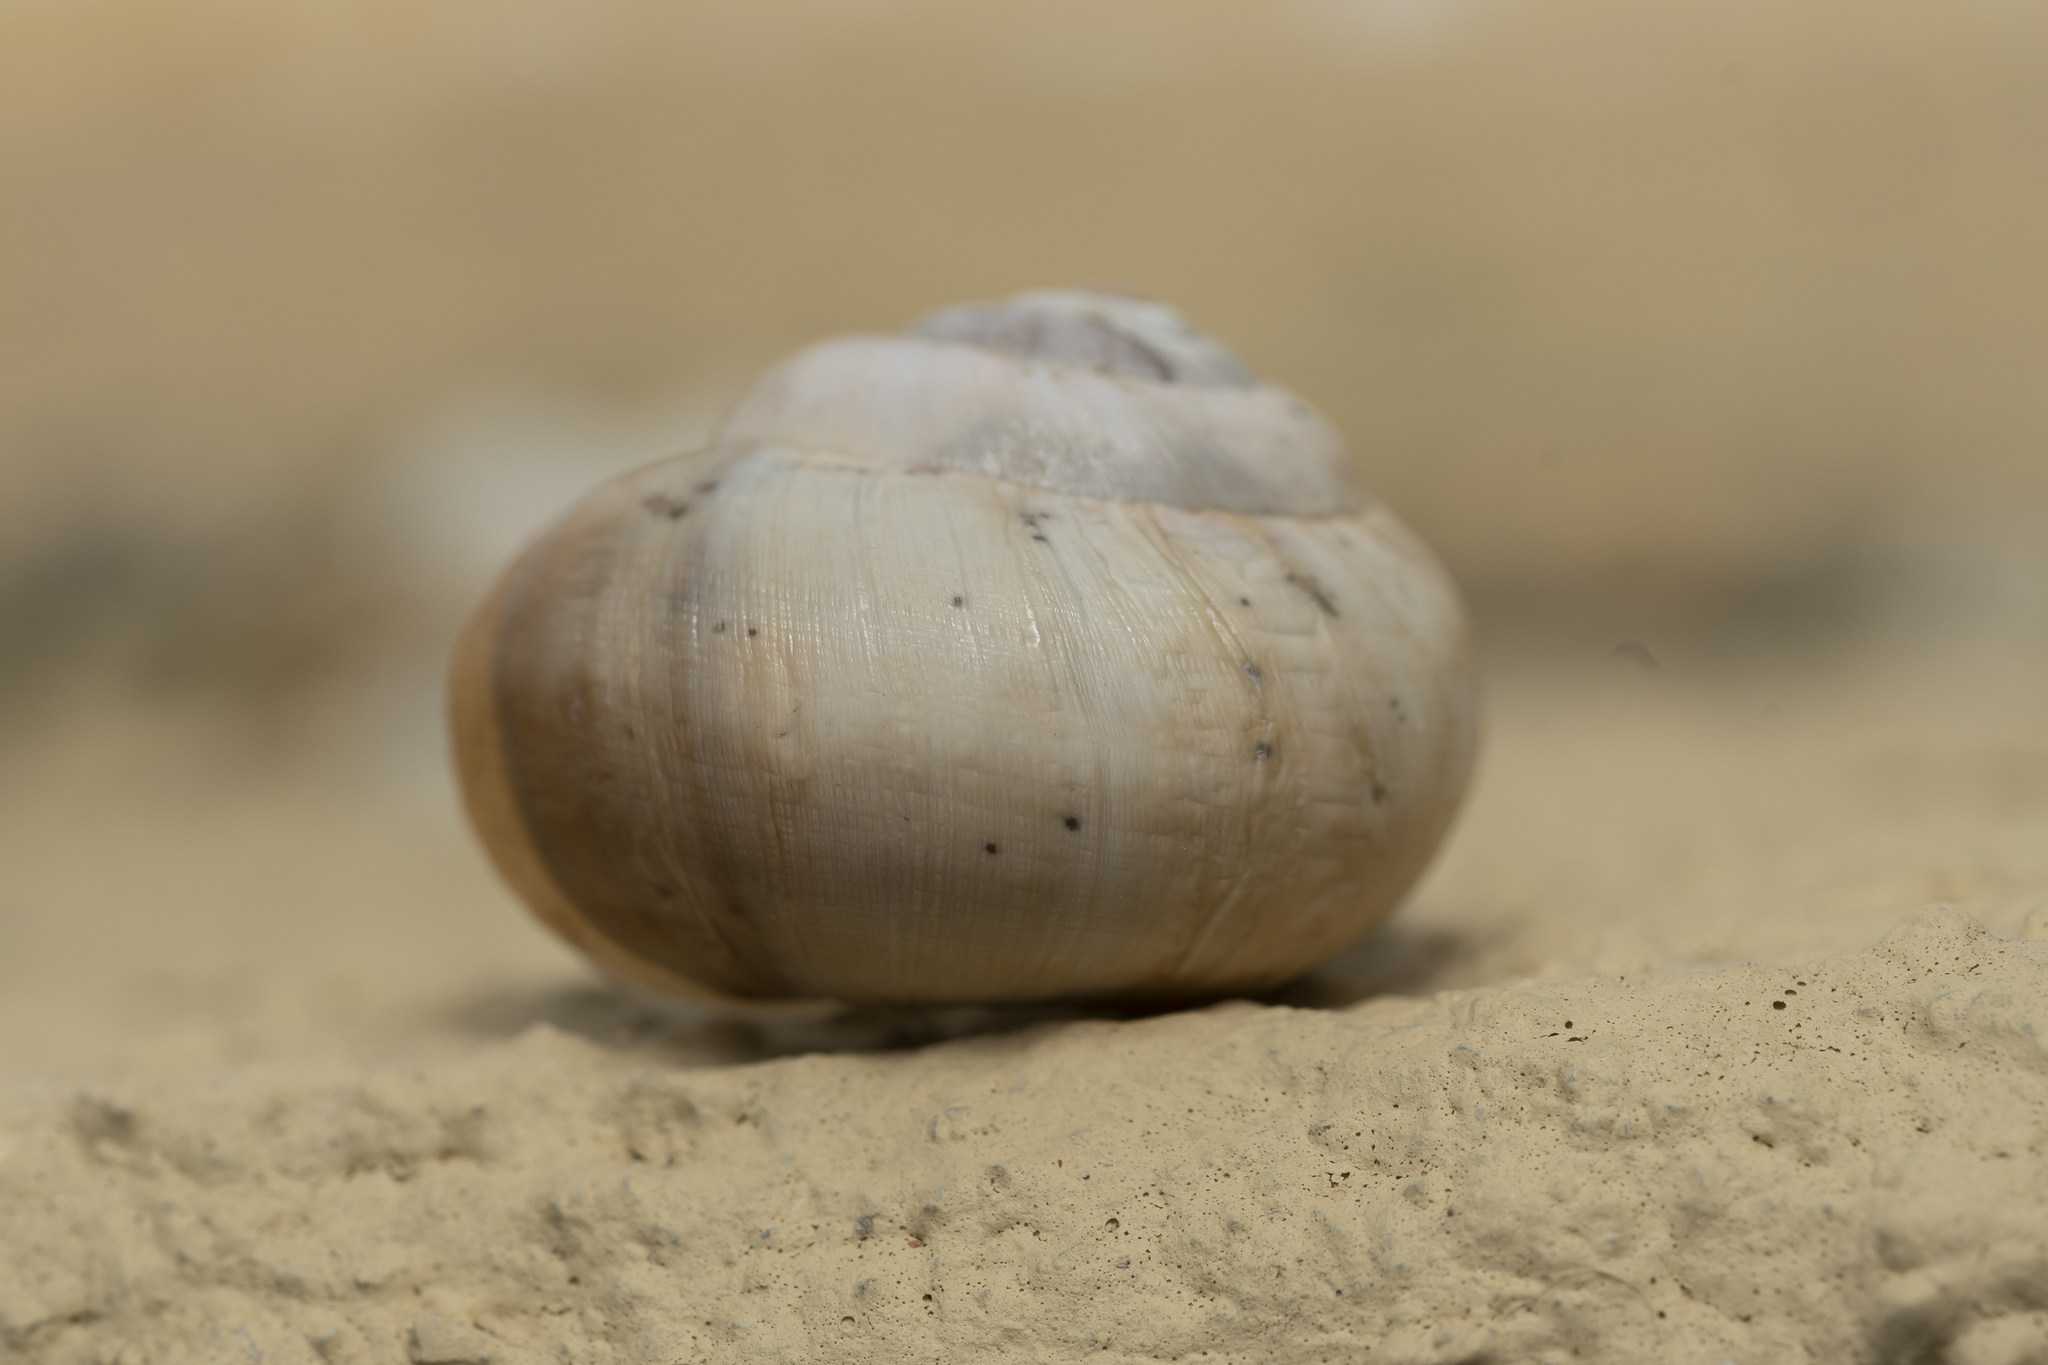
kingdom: Animalia
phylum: Mollusca
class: Gastropoda
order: Stylommatophora
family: Helicidae
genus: Theba
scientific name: Theba pisana
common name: White snail
